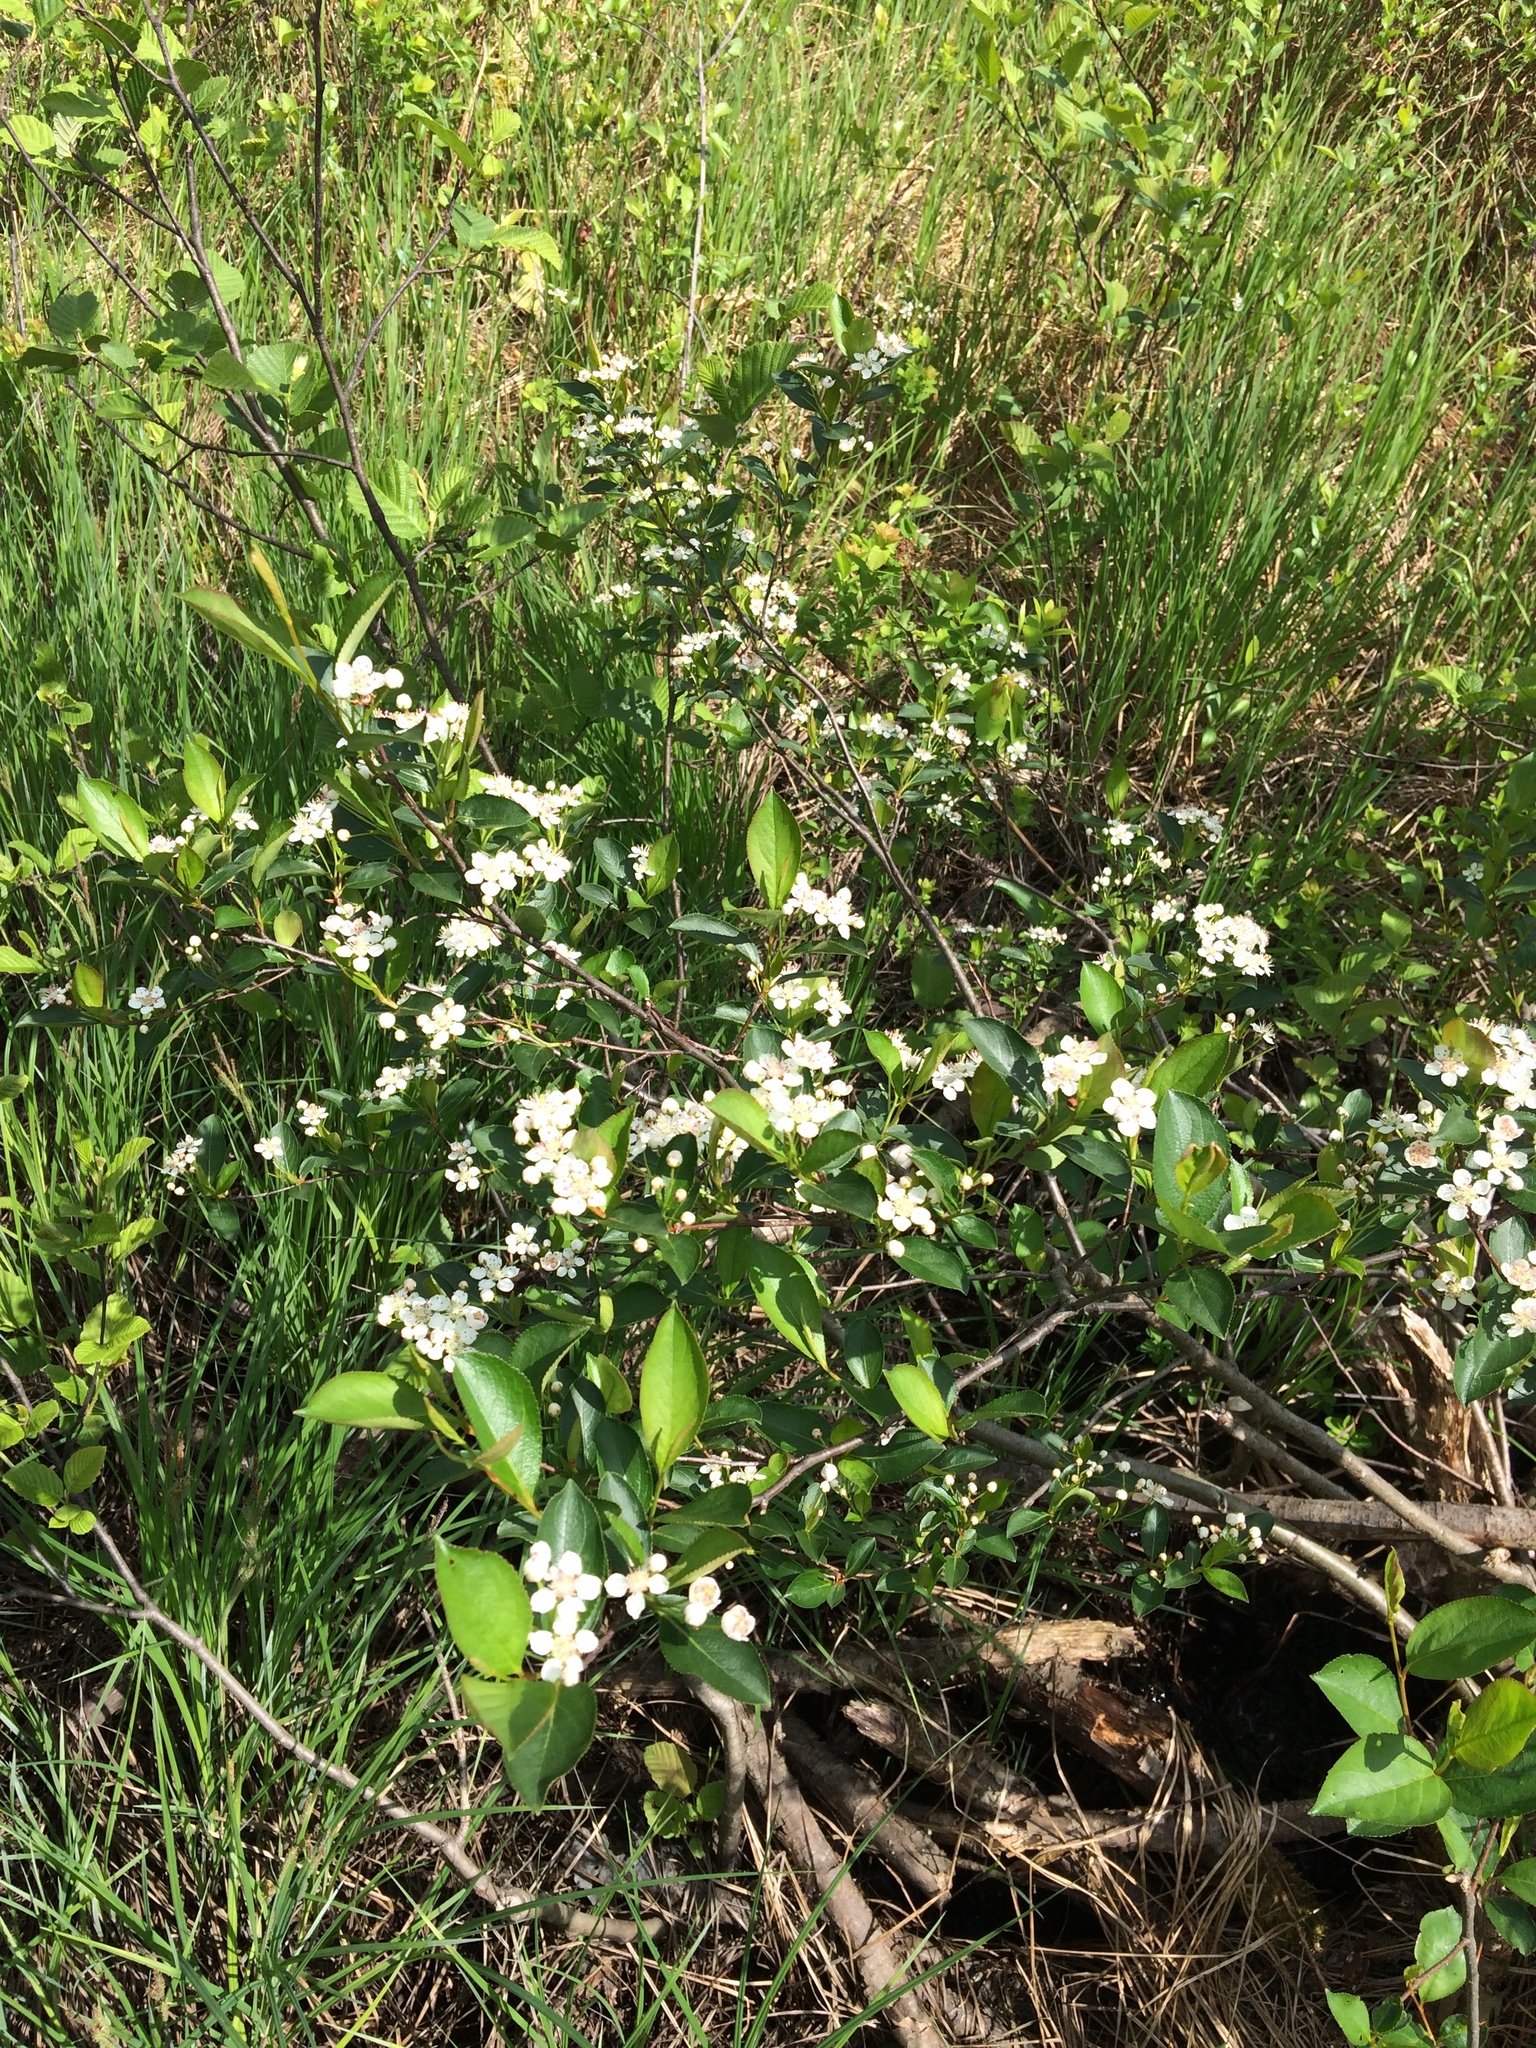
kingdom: Plantae
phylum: Tracheophyta
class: Magnoliopsida
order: Rosales
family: Rosaceae
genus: Aronia
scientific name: Aronia melanocarpa
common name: Black chokeberry
